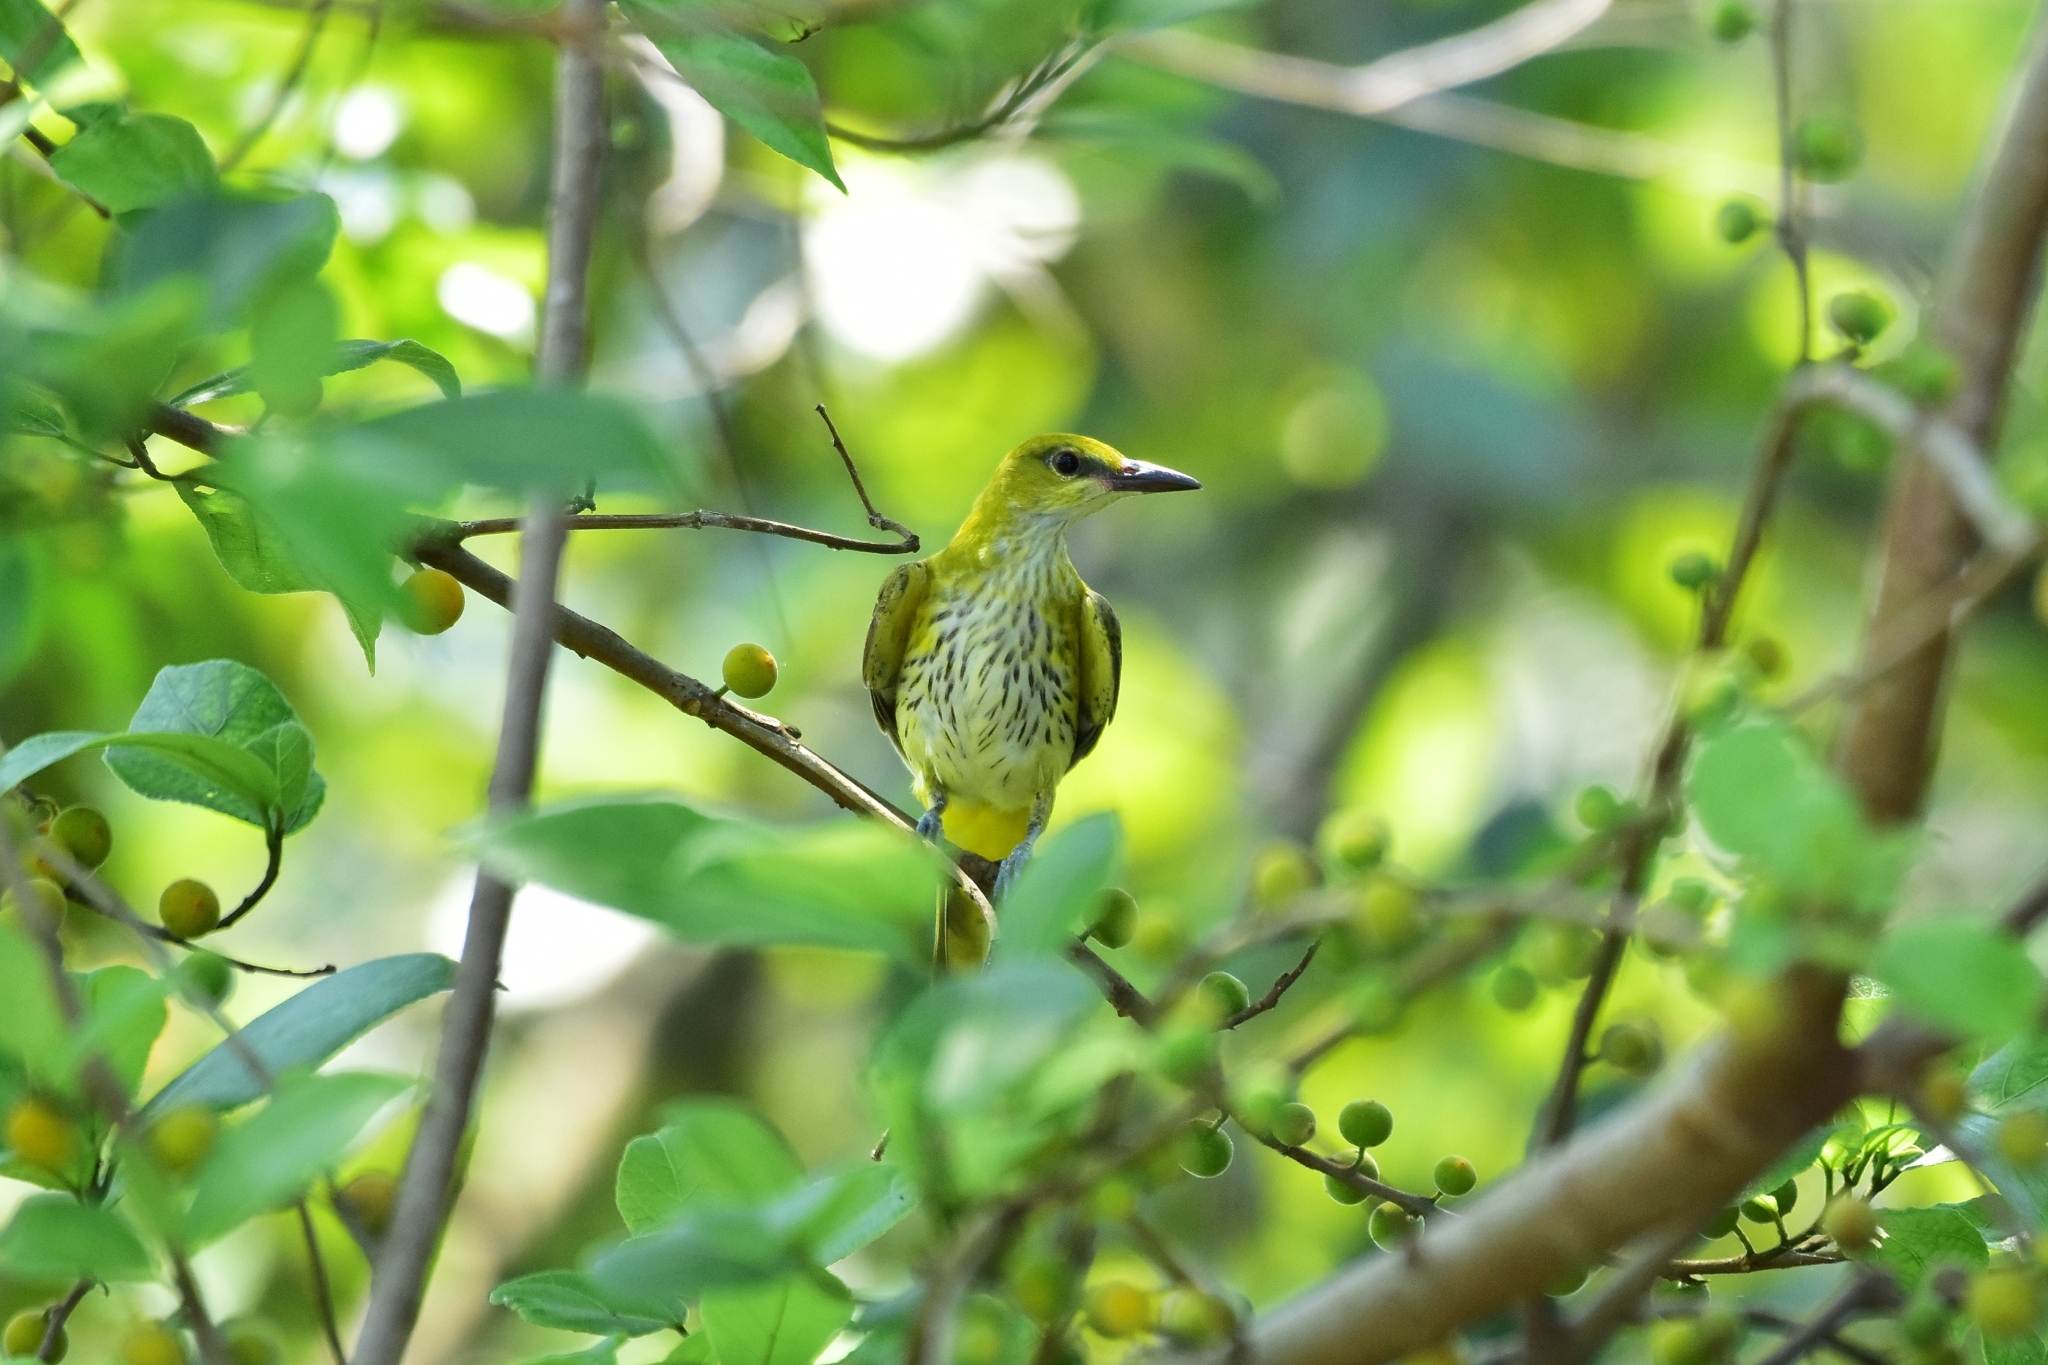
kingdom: Animalia
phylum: Chordata
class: Aves
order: Passeriformes
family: Oriolidae
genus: Oriolus
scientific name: Oriolus kundoo
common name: Indian golden oriole
